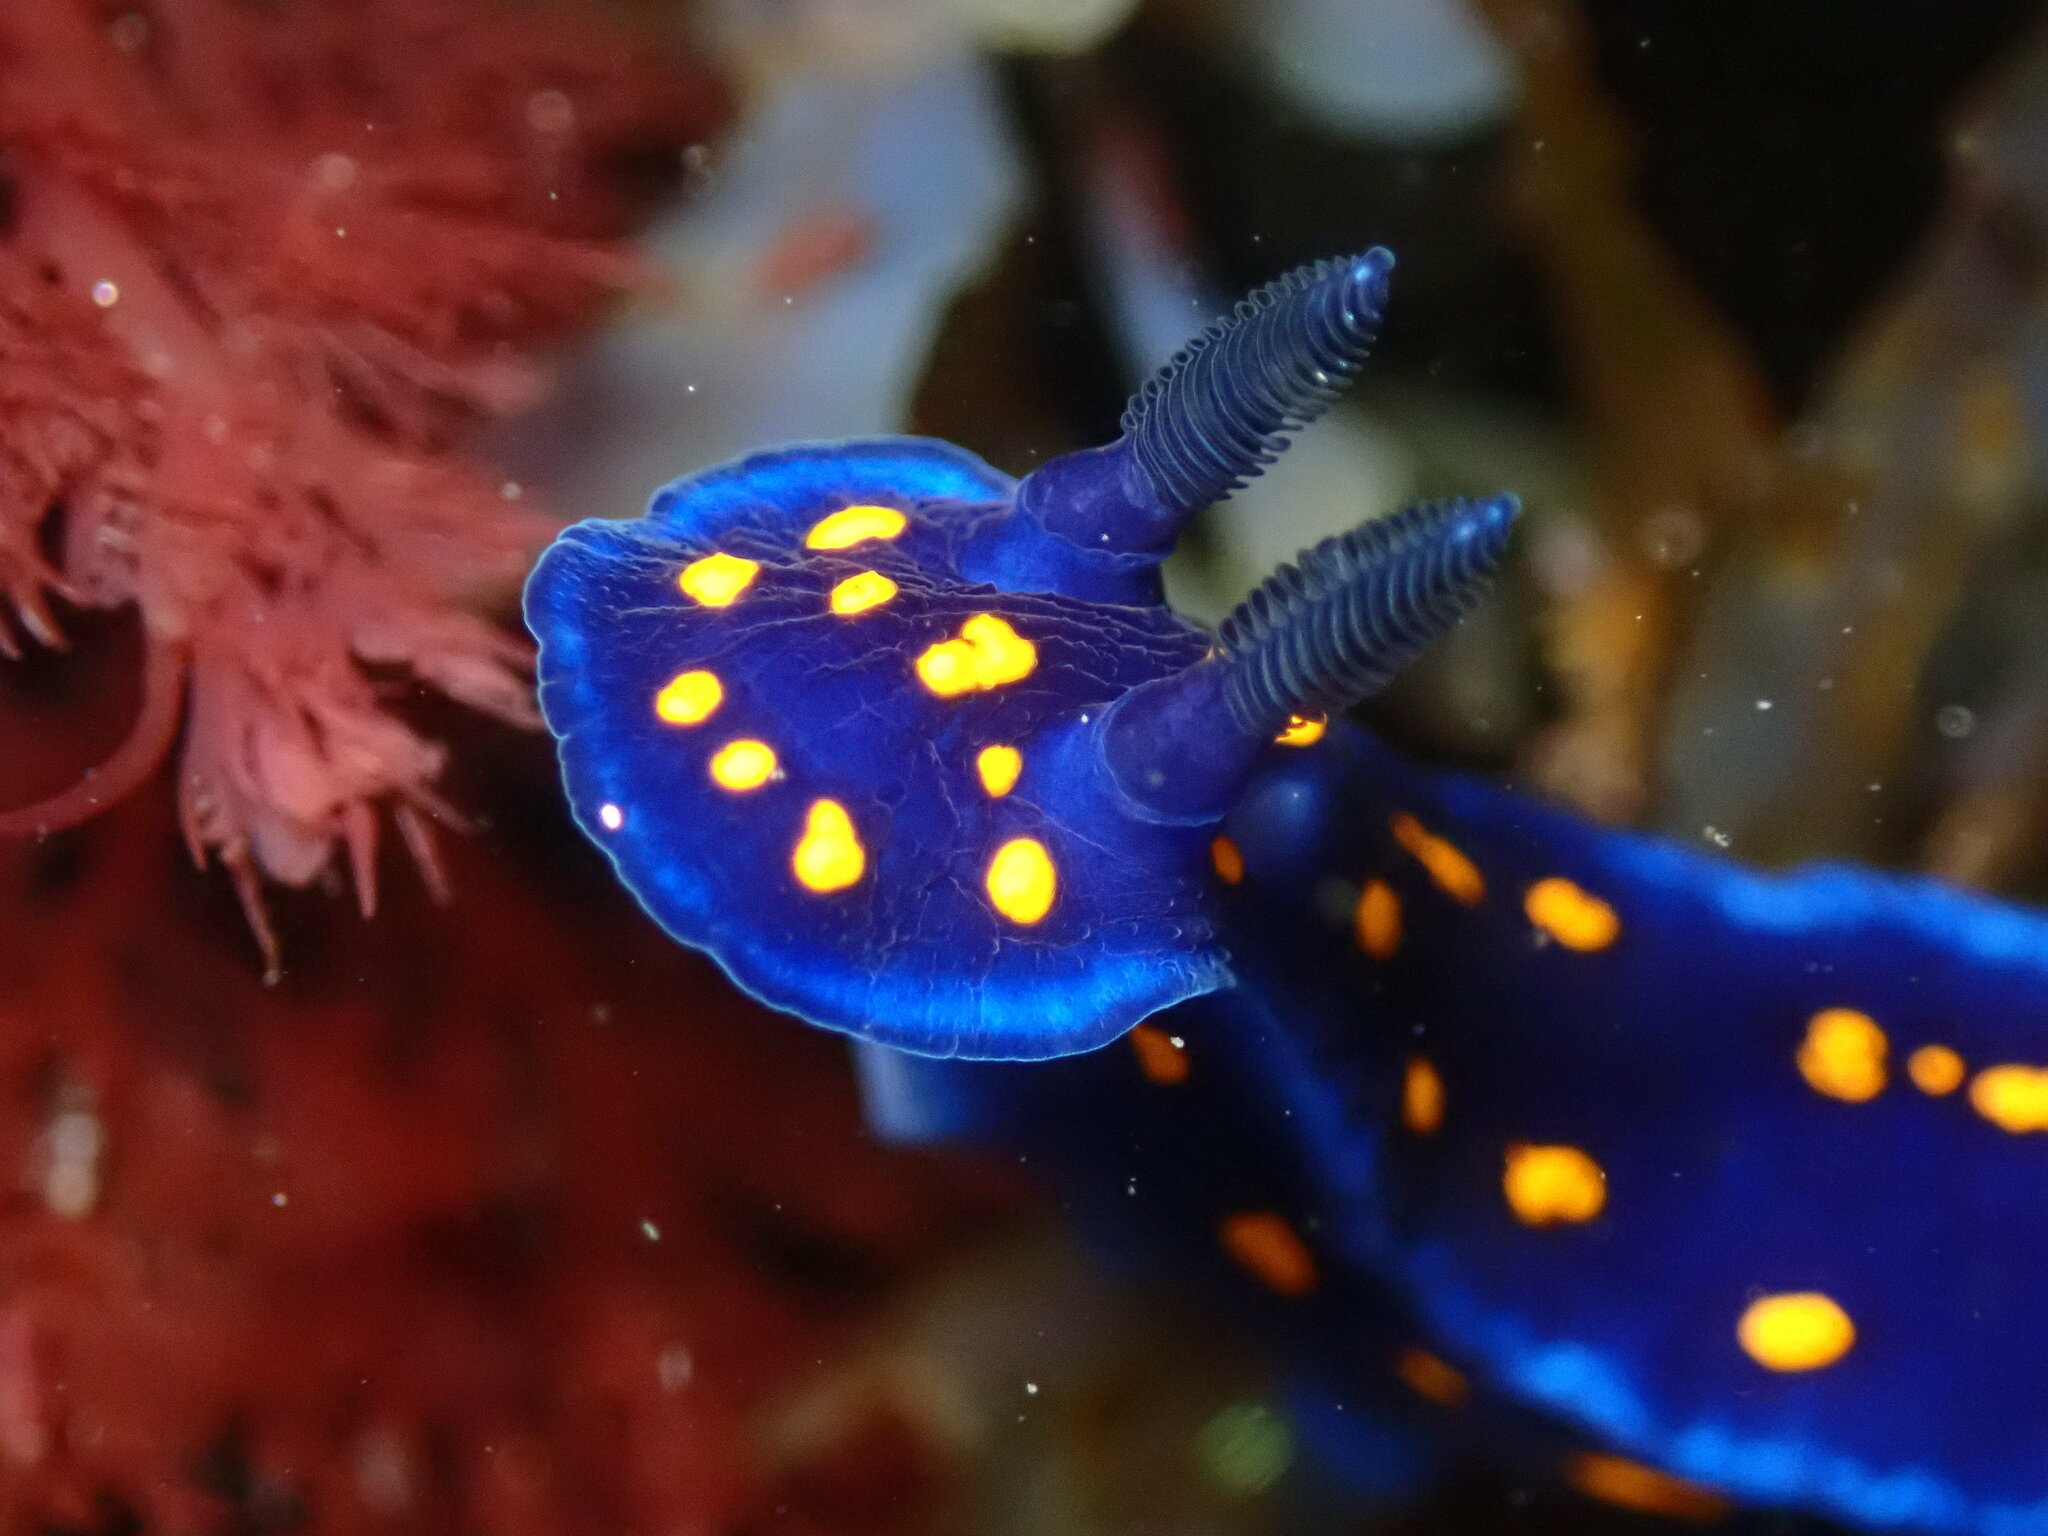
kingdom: Animalia
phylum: Mollusca
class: Gastropoda
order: Nudibranchia
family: Chromodorididae
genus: Felimare
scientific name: Felimare californiensis
